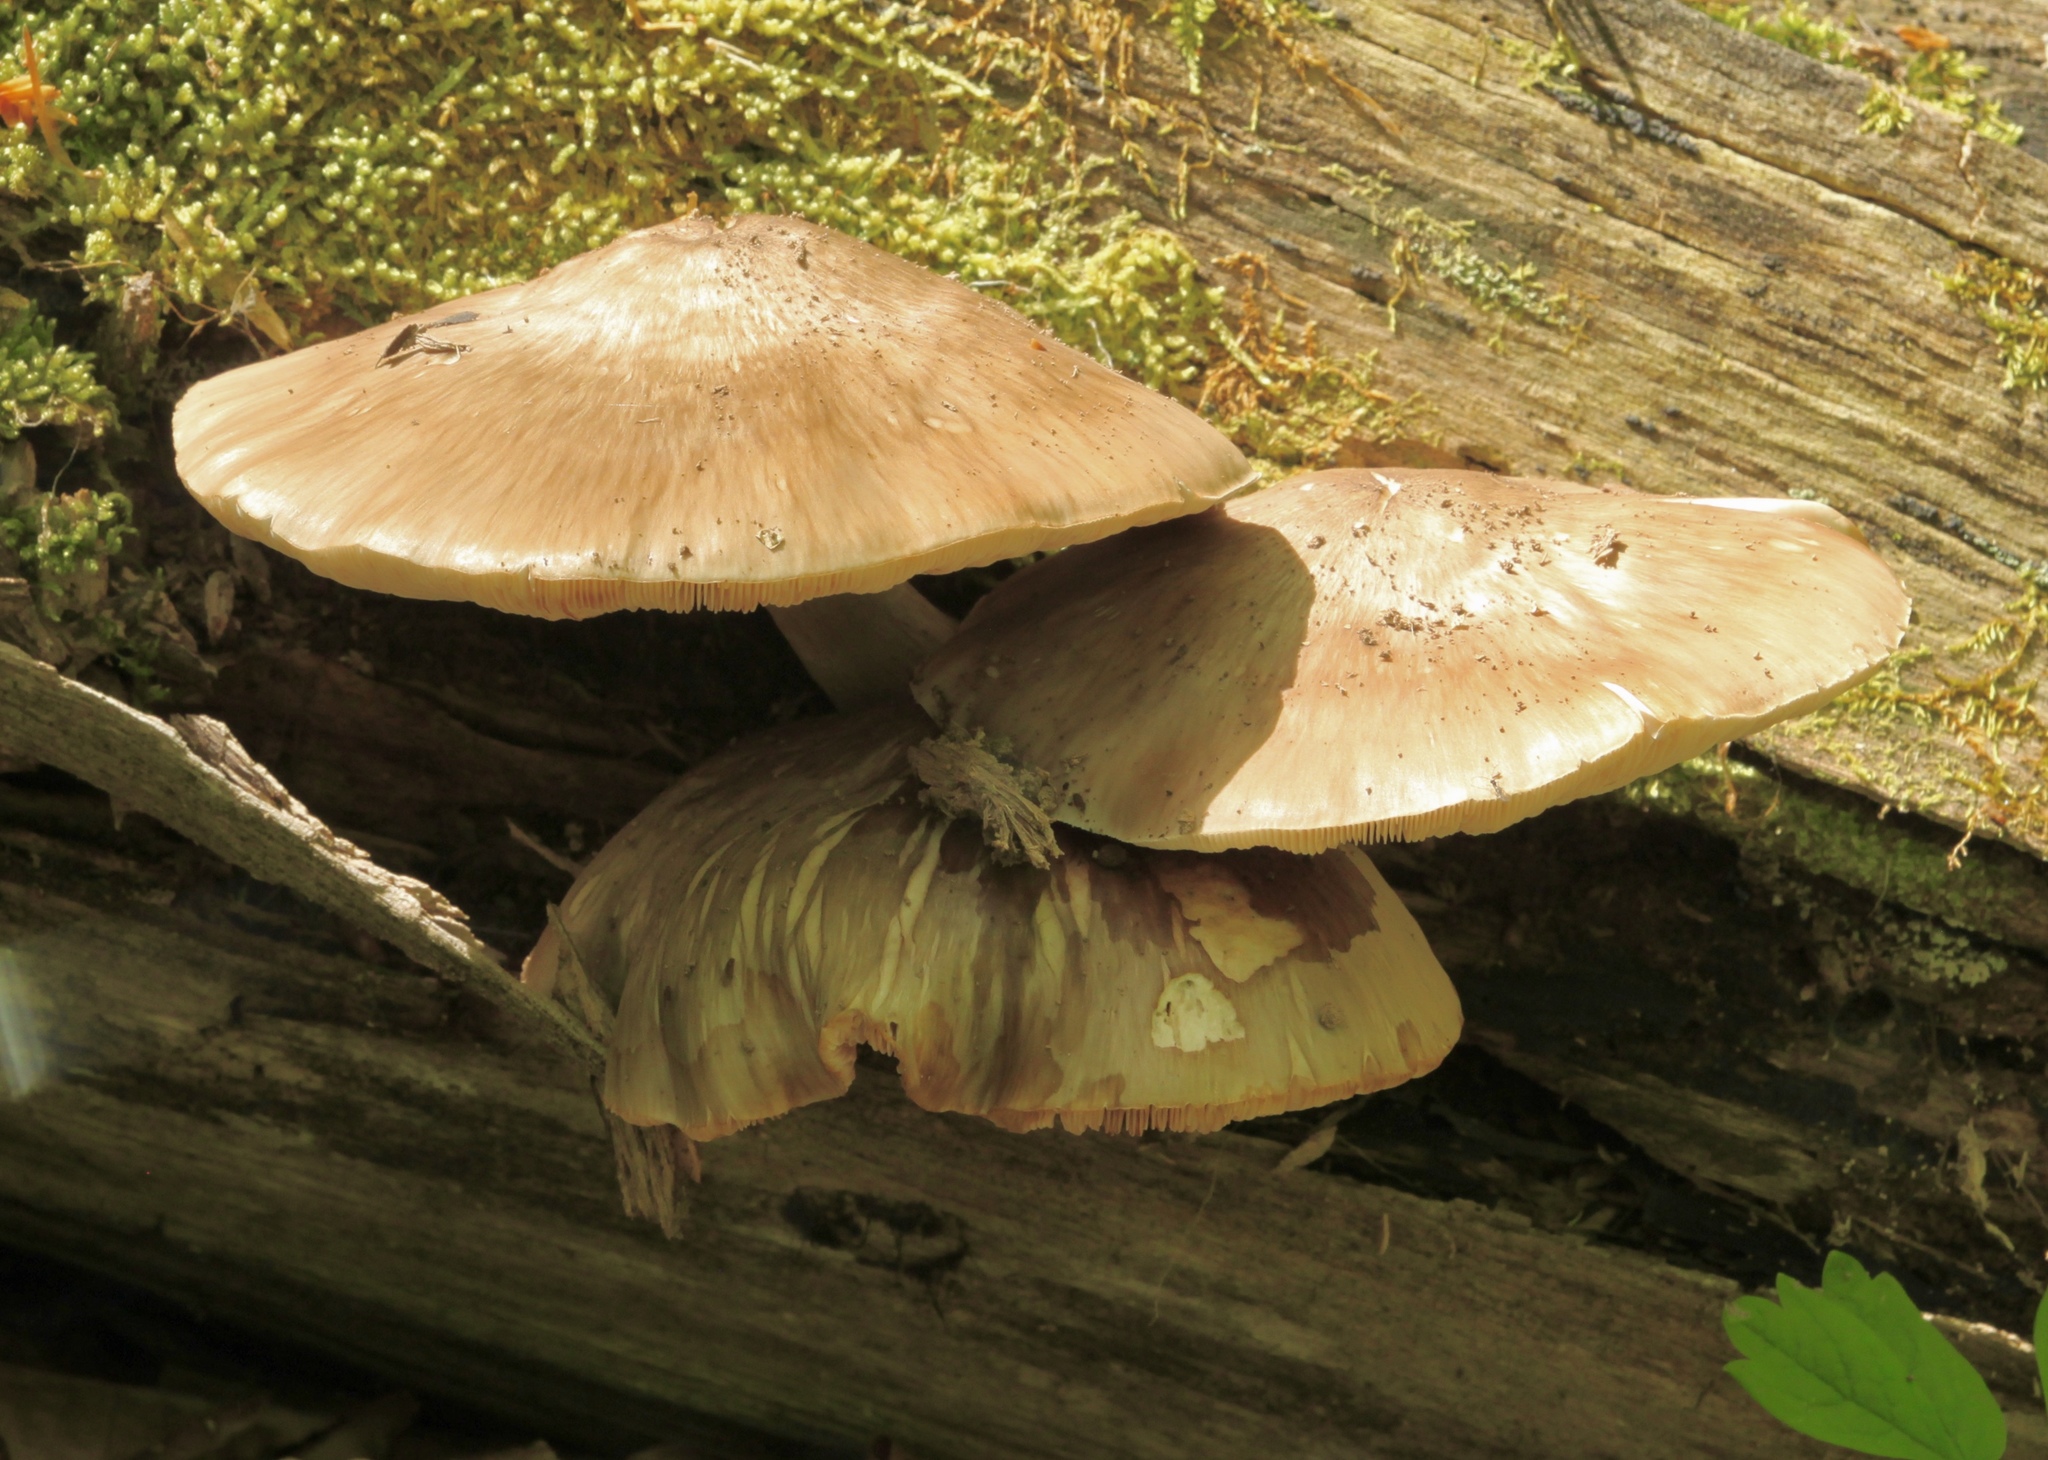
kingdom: Fungi
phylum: Basidiomycota
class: Agaricomycetes
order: Agaricales
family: Pluteaceae
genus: Pluteus
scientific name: Pluteus cervinus
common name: Deer shield
